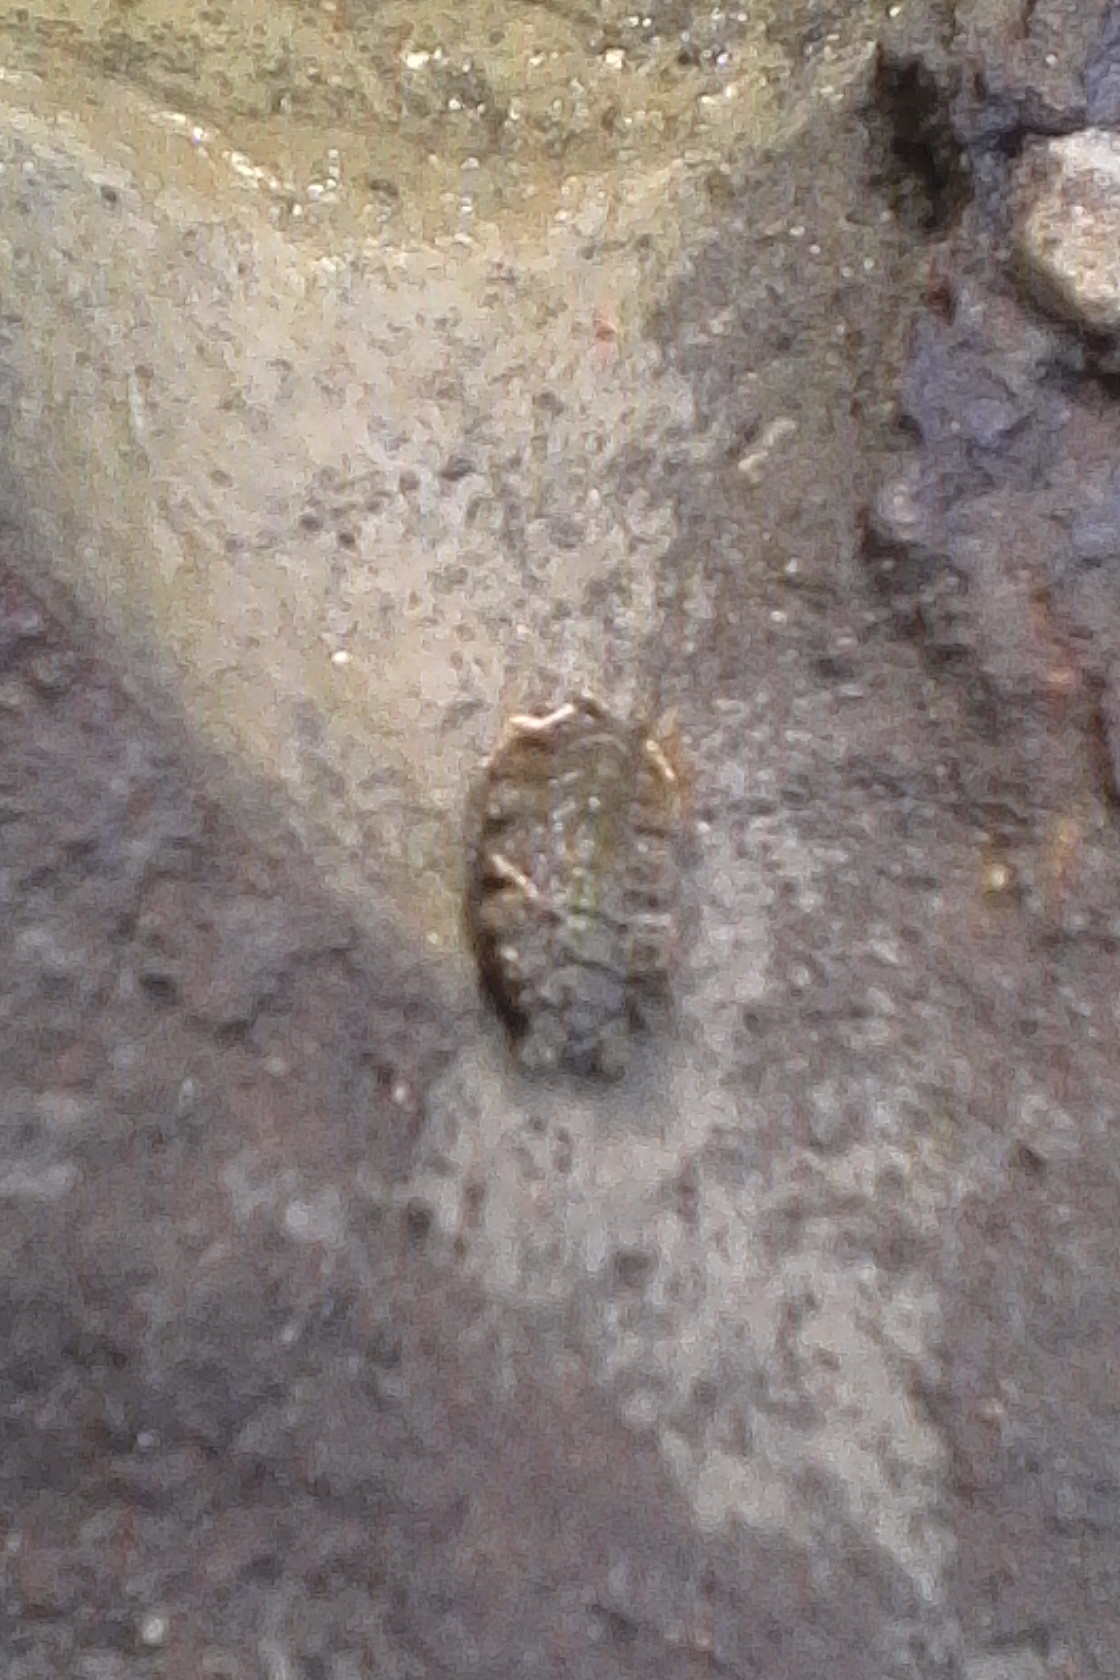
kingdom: Animalia
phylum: Mollusca
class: Polyplacophora
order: Chitonida
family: Acanthochitonidae
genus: Acanthochitona
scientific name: Acanthochitona zelandica
